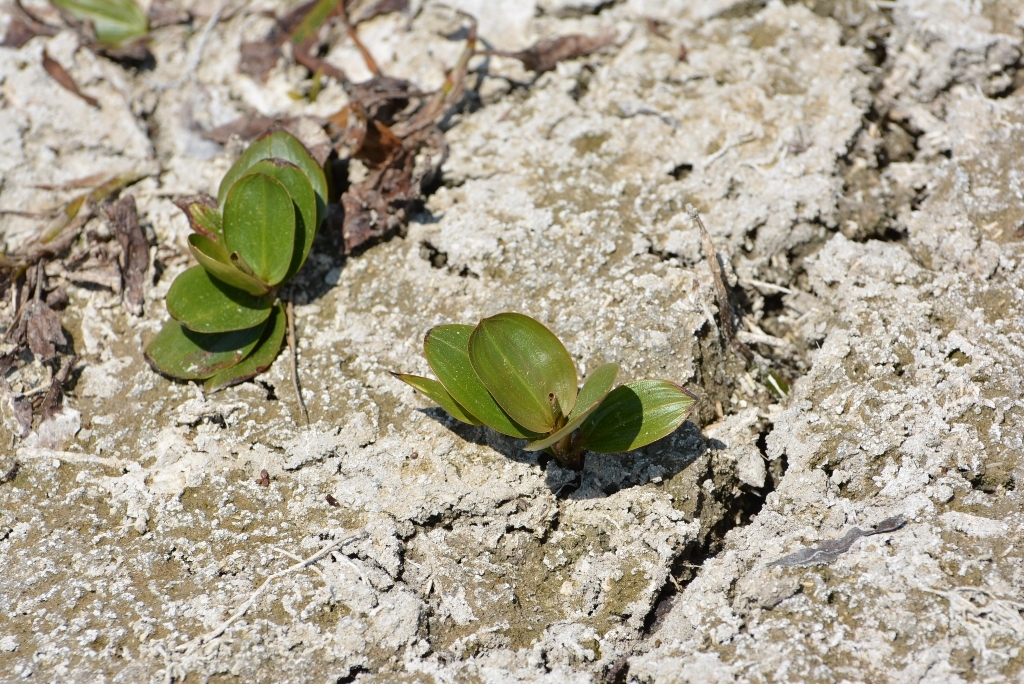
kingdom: Plantae
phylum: Tracheophyta
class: Liliopsida
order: Alismatales
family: Potamogetonaceae
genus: Potamogeton
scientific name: Potamogeton nodosus
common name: Loddon pondweed
